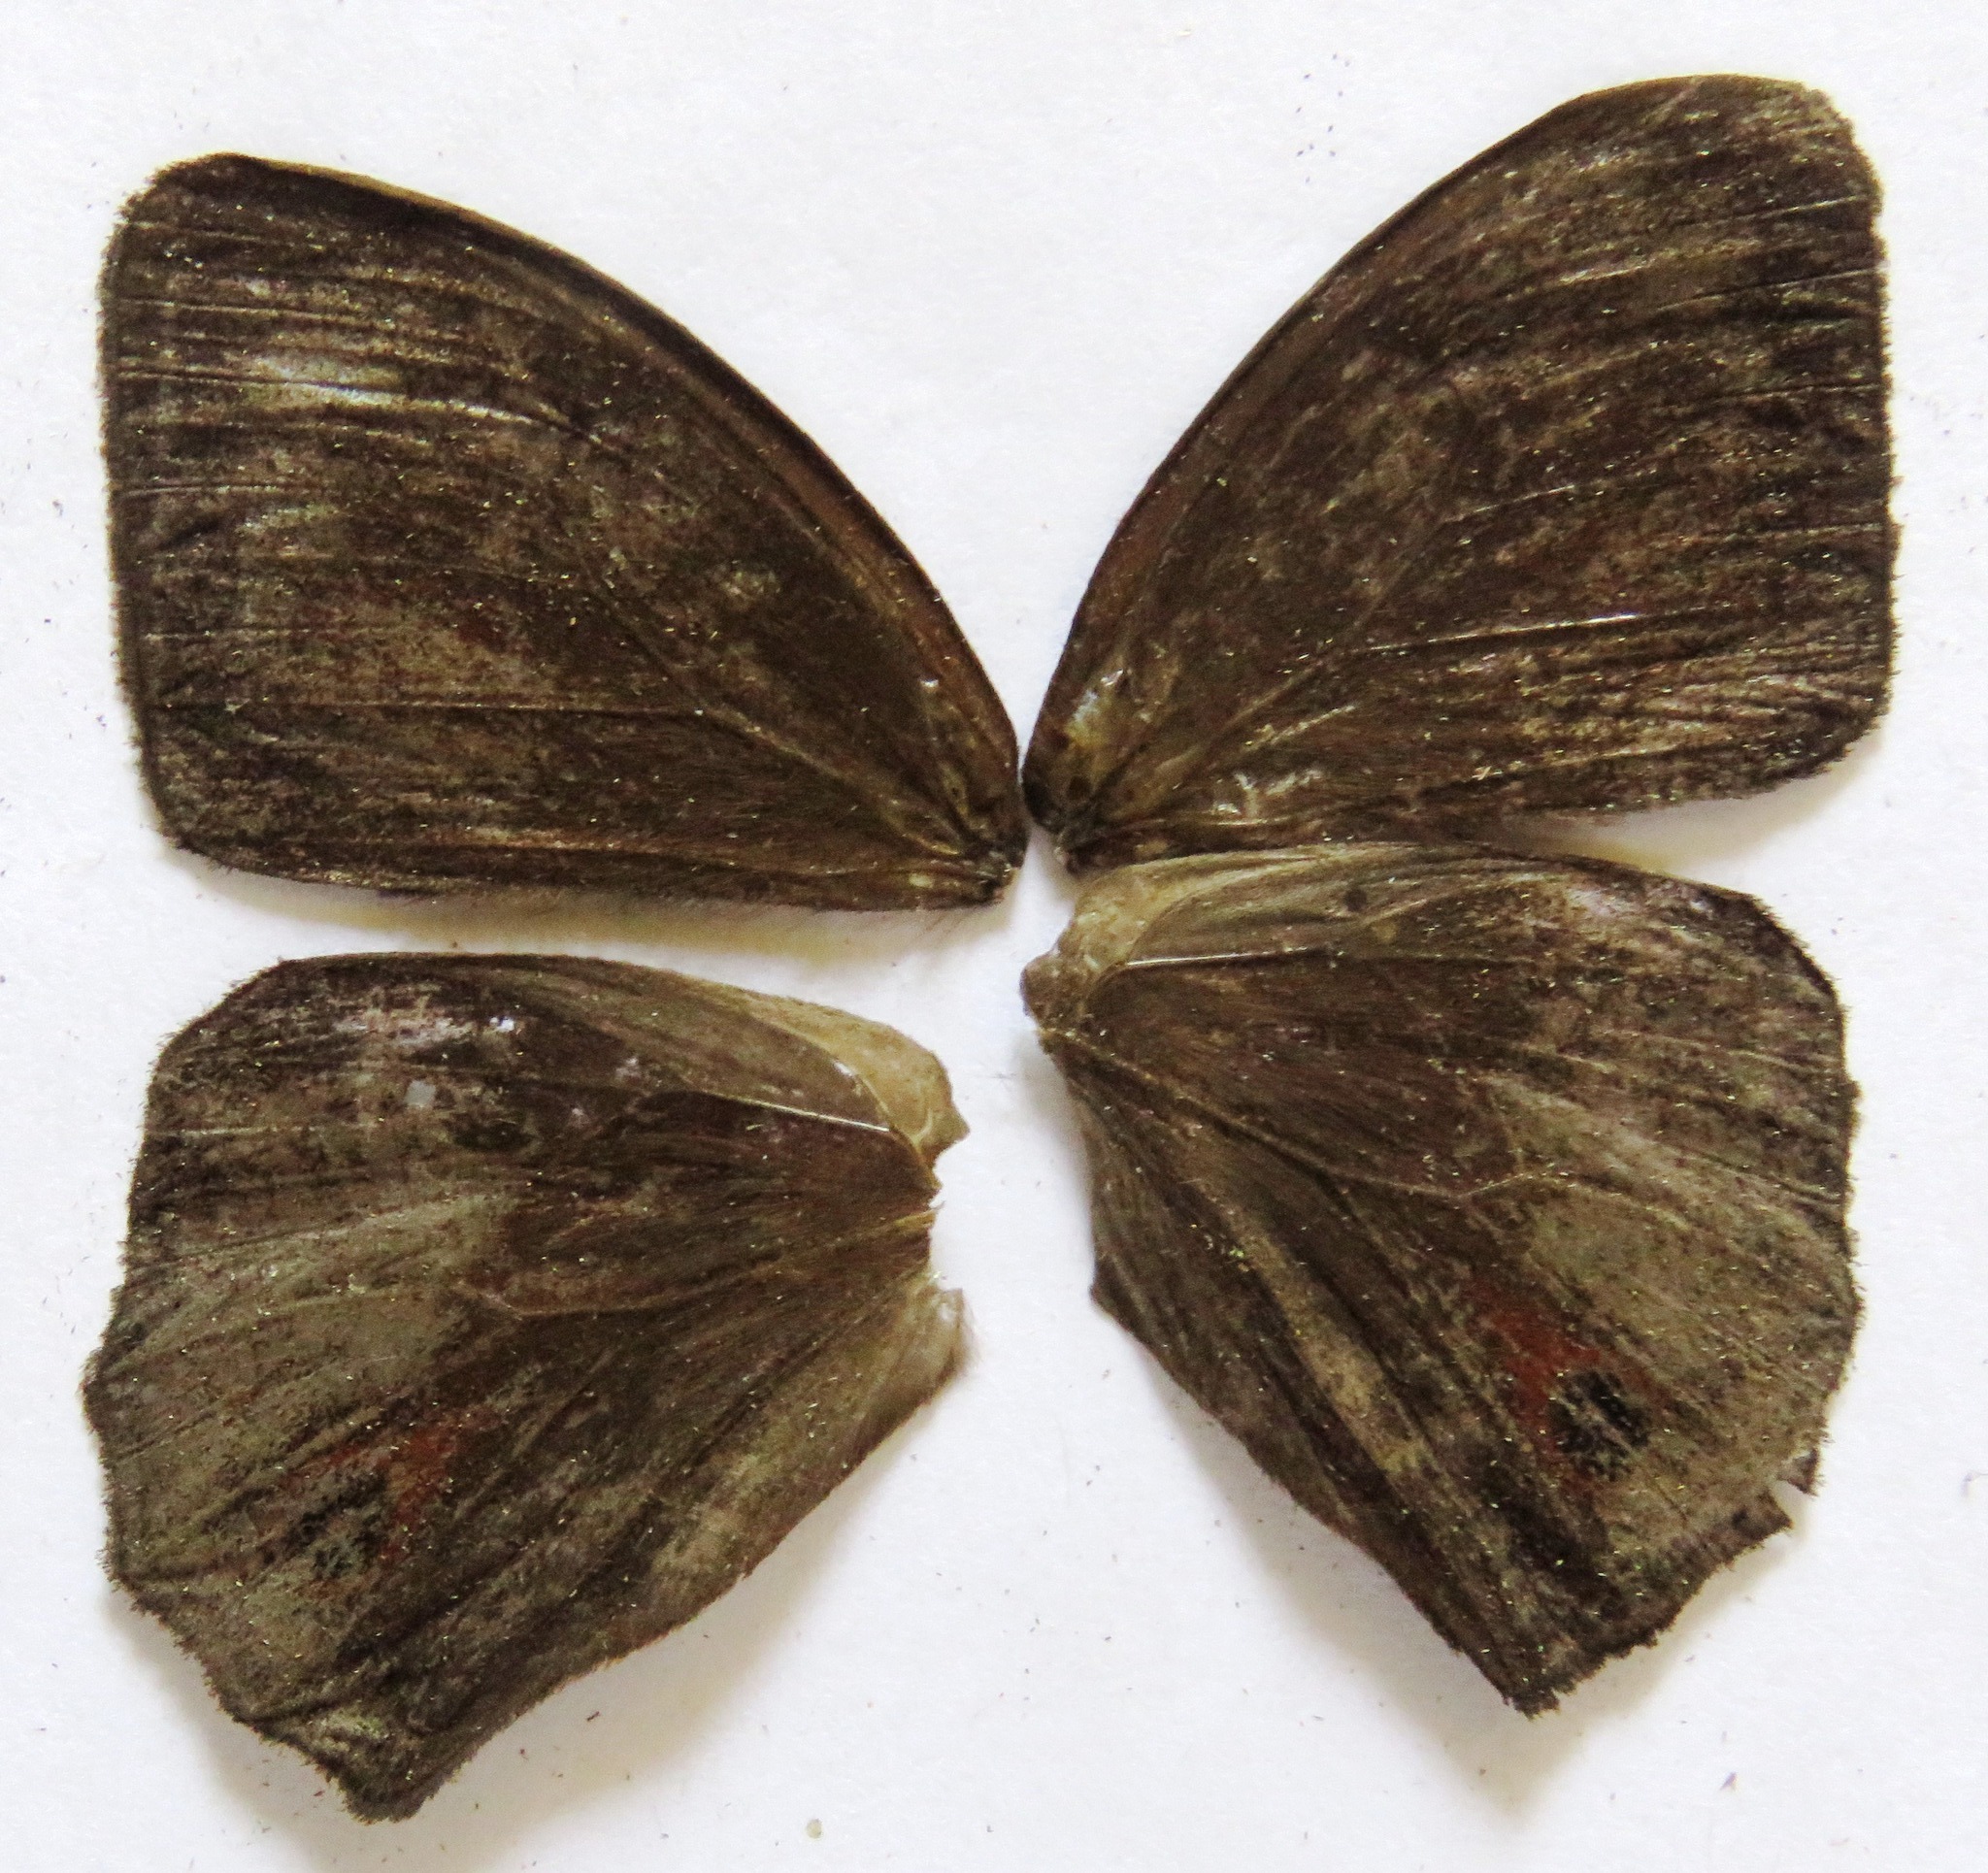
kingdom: Animalia
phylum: Arthropoda
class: Insecta
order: Lepidoptera
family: Nymphalidae
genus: Satyrotaygetis
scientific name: Satyrotaygetis satyrina
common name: Wide-bordered satyr
